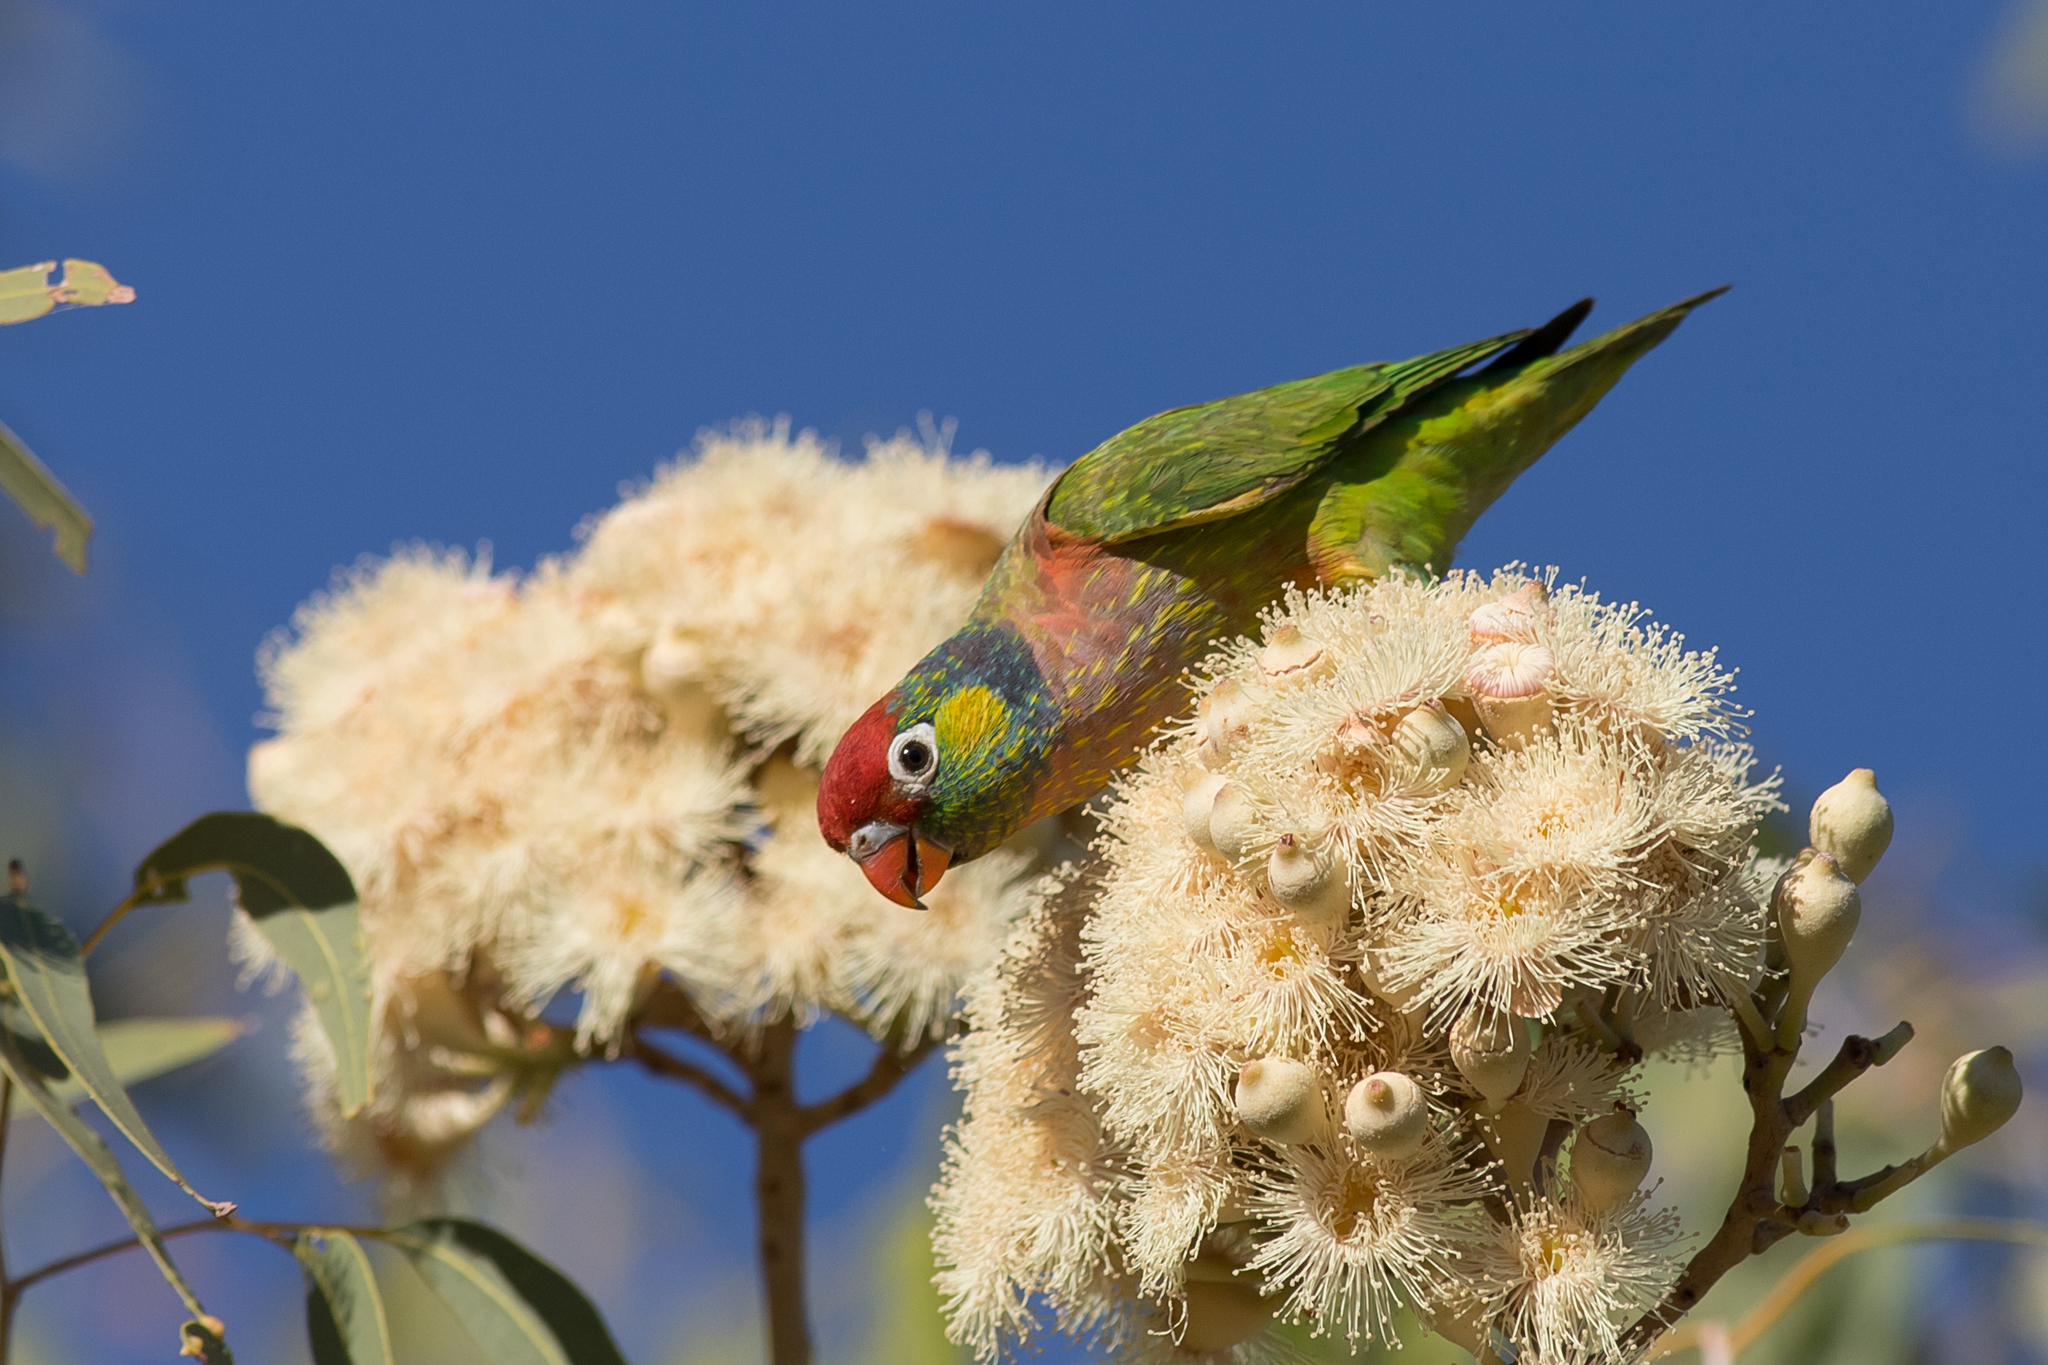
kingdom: Animalia
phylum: Chordata
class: Aves
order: Psittaciformes
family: Psittacidae
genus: Psitteuteles
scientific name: Psitteuteles versicolor
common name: Varied lorikeet
